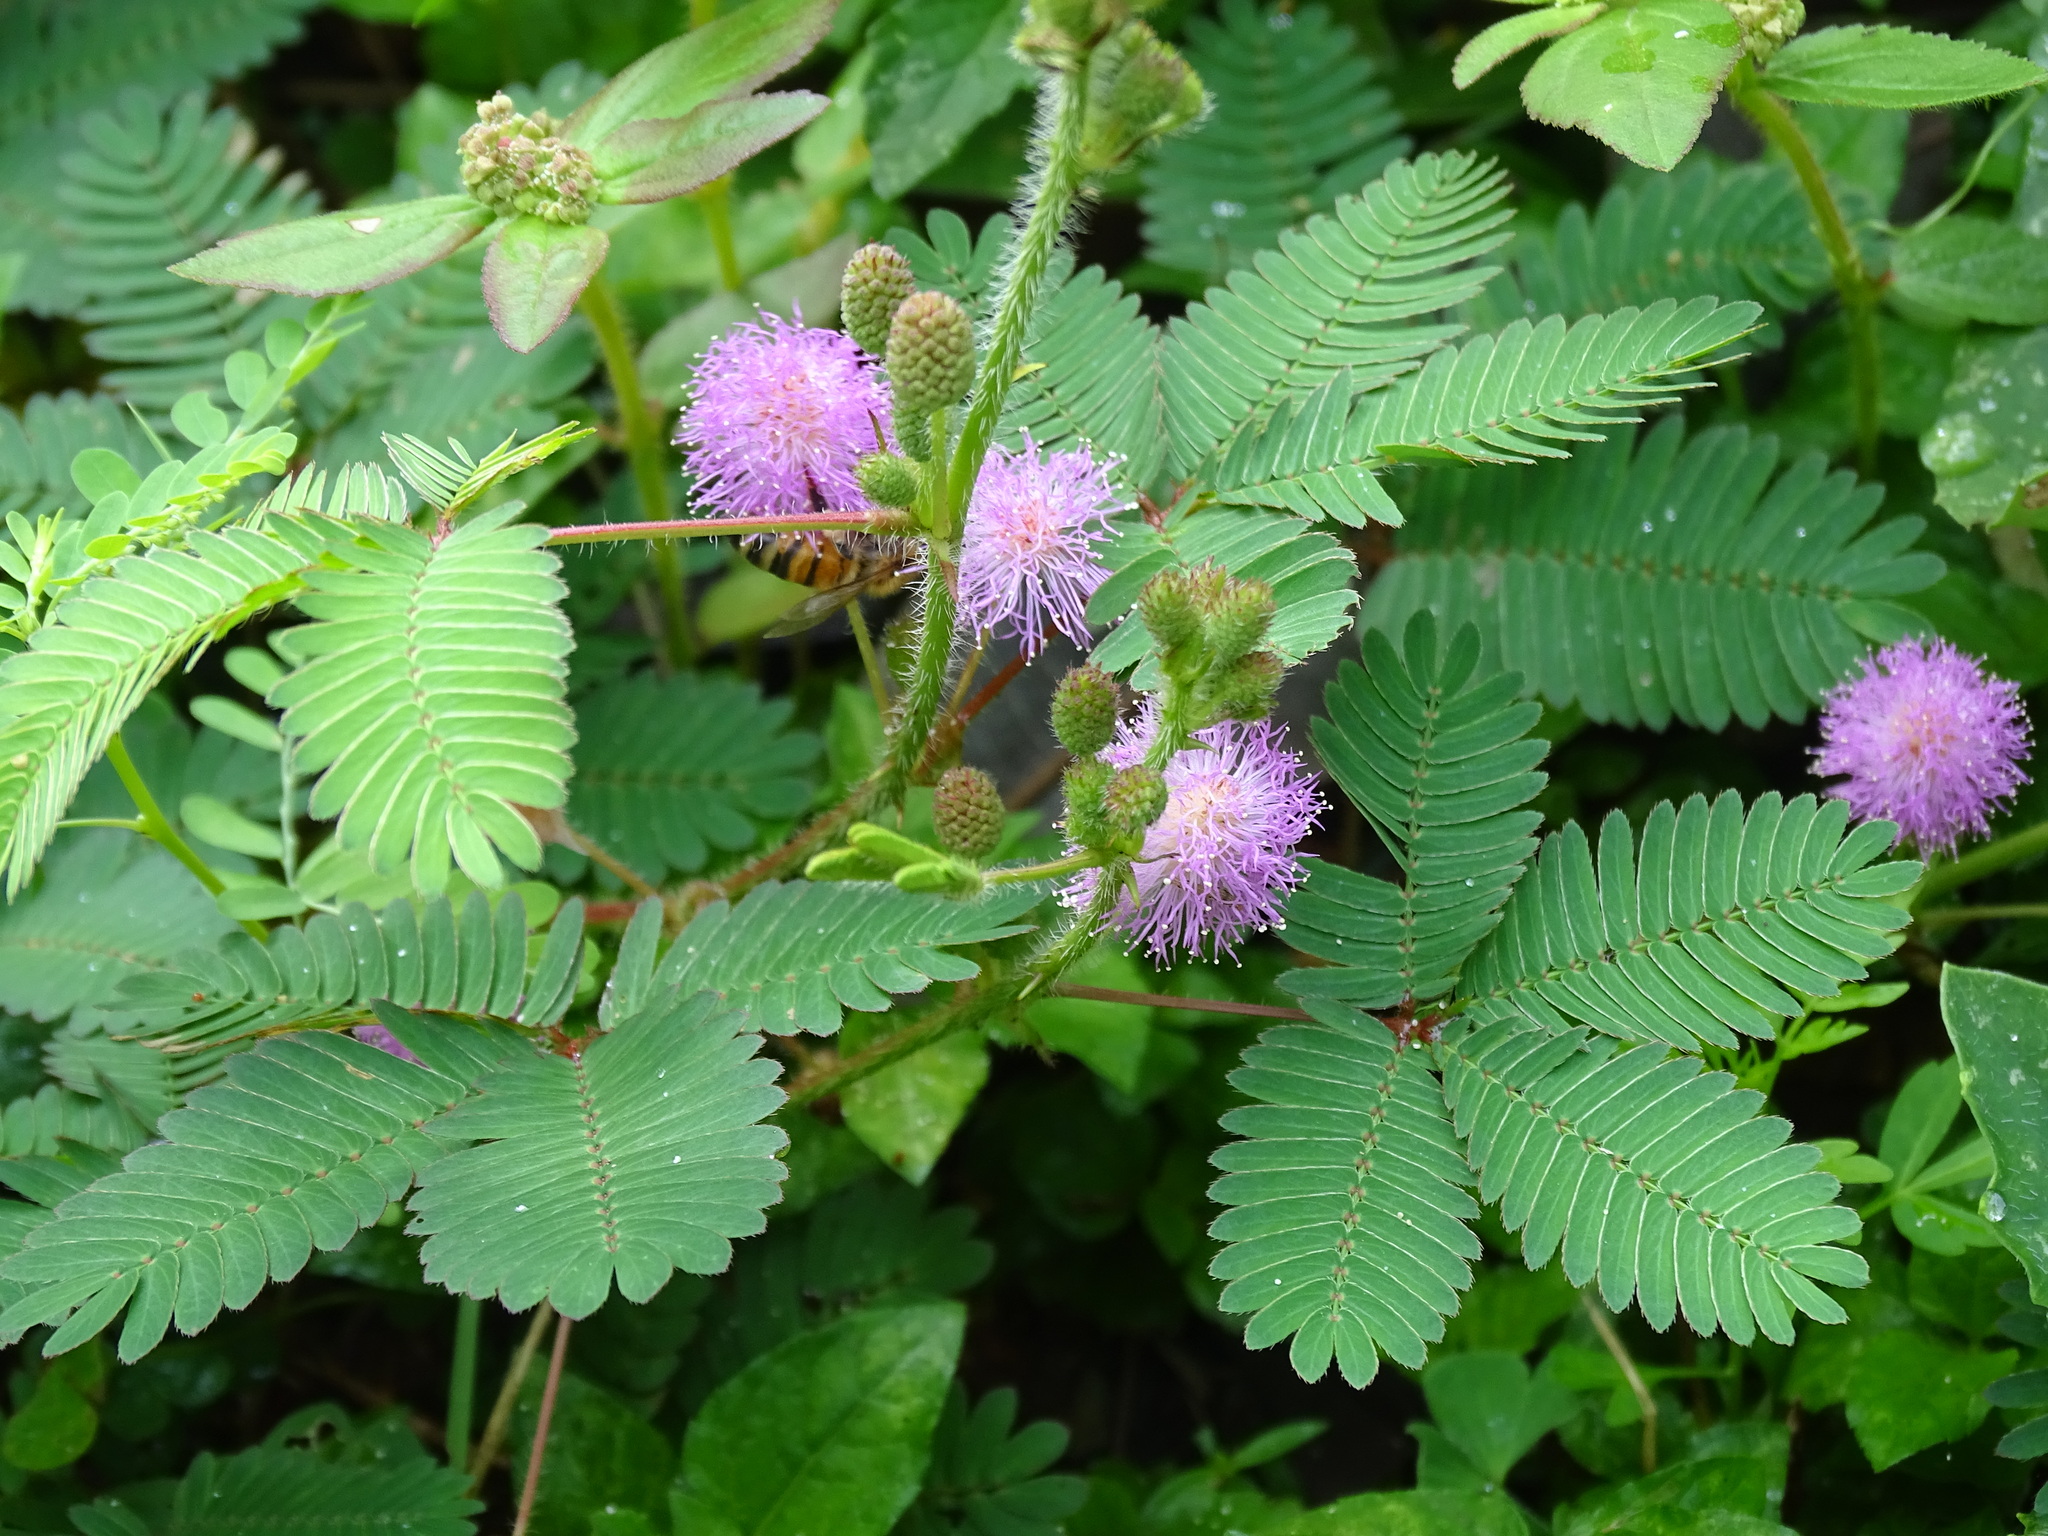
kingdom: Plantae
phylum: Tracheophyta
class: Magnoliopsida
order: Fabales
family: Fabaceae
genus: Mimosa
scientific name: Mimosa pudica
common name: Sensitive plant
